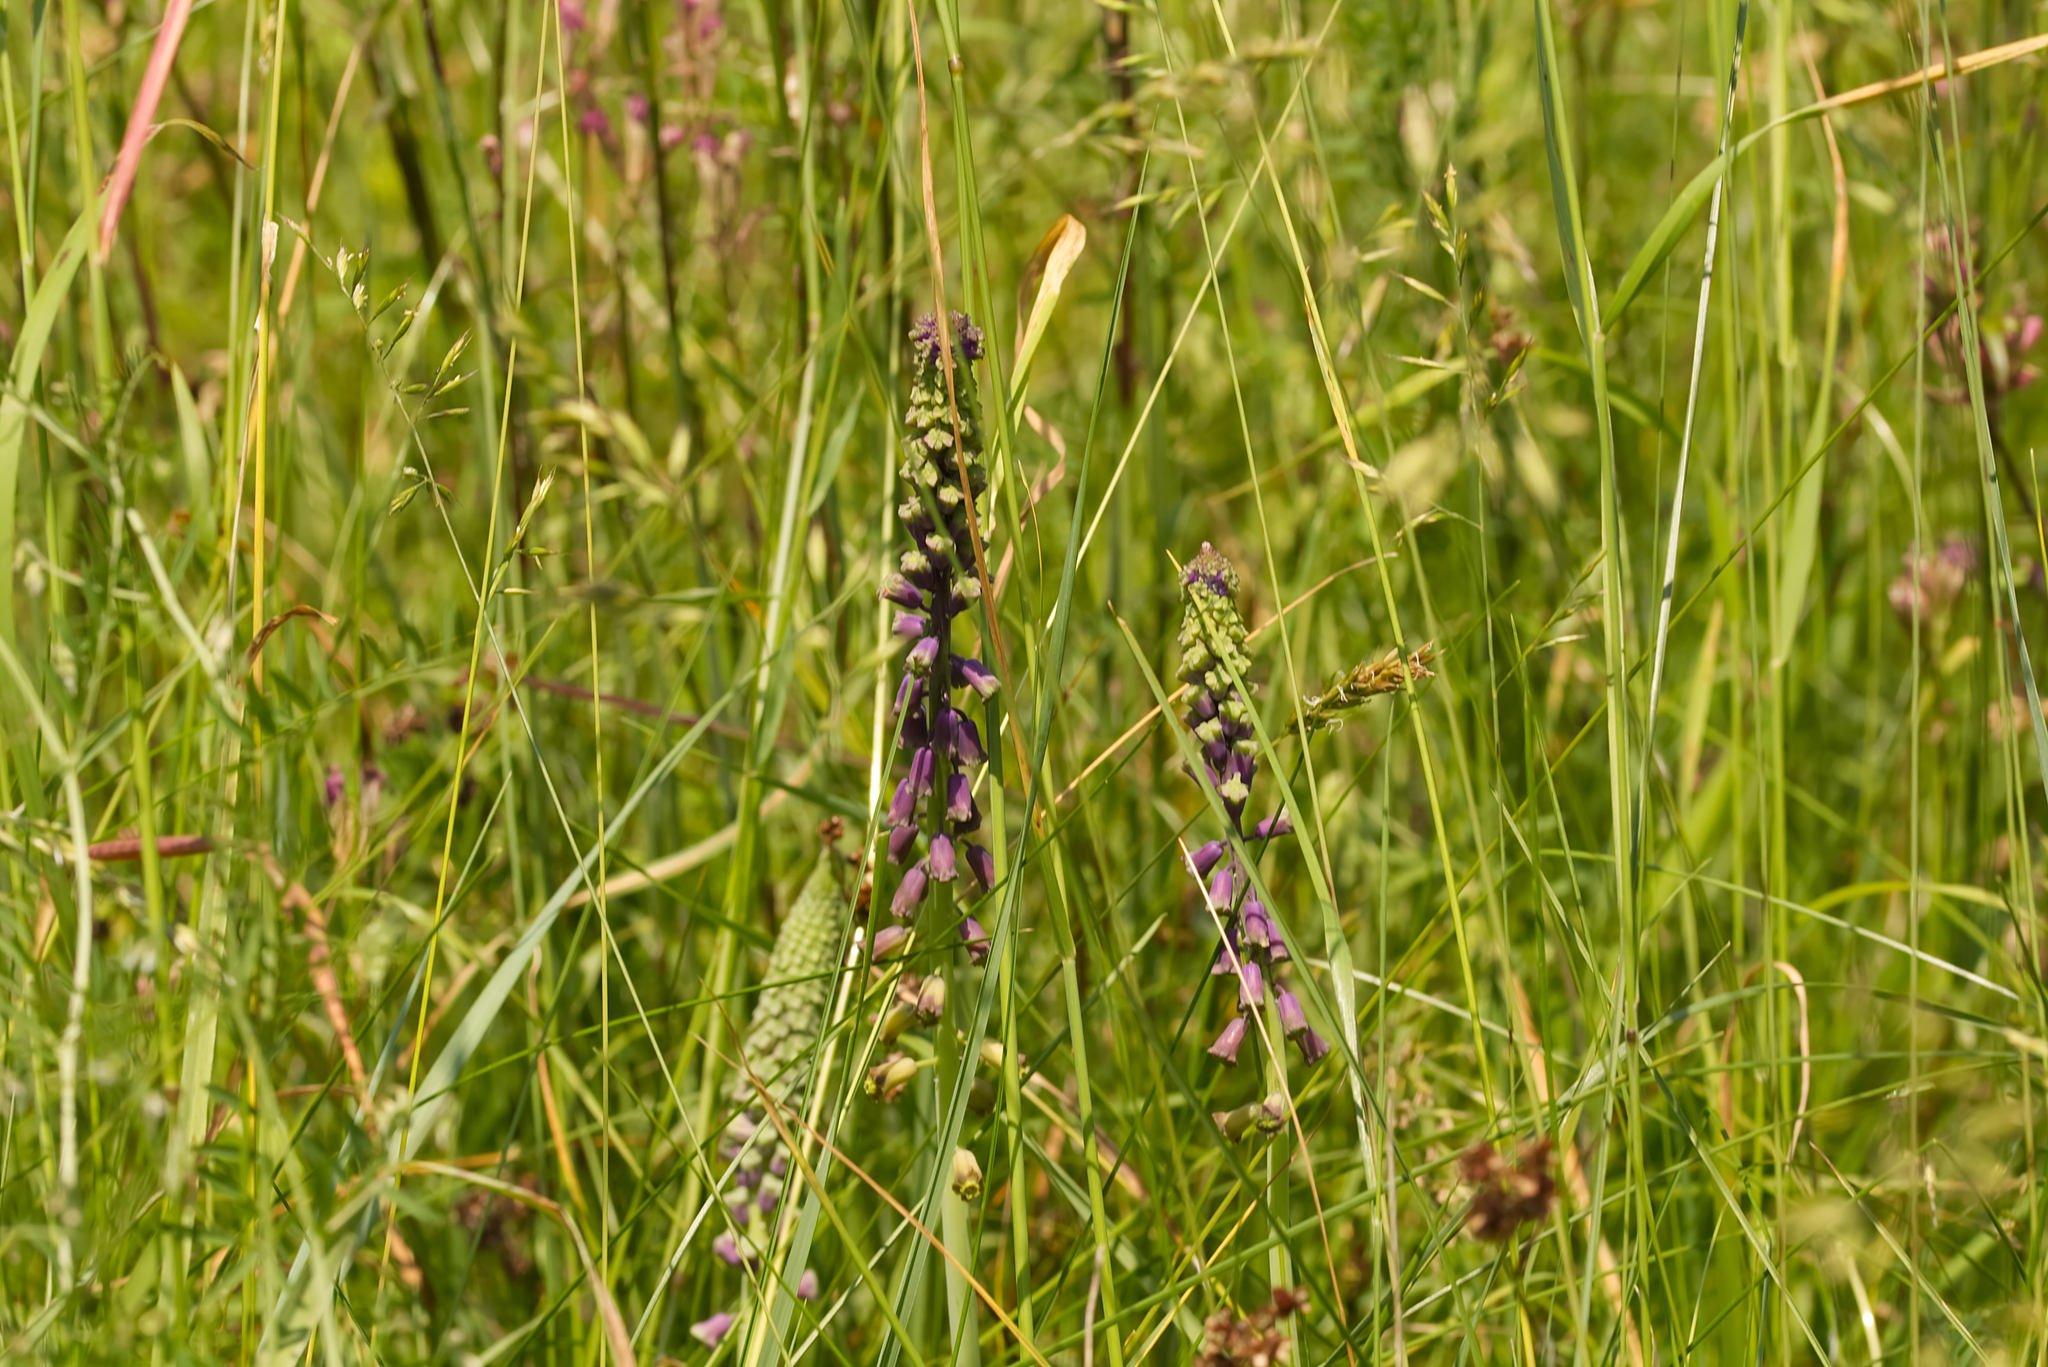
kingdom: Plantae
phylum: Tracheophyta
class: Liliopsida
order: Asparagales
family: Asparagaceae
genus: Muscari
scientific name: Muscari comosum
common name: Tassel hyacinth
